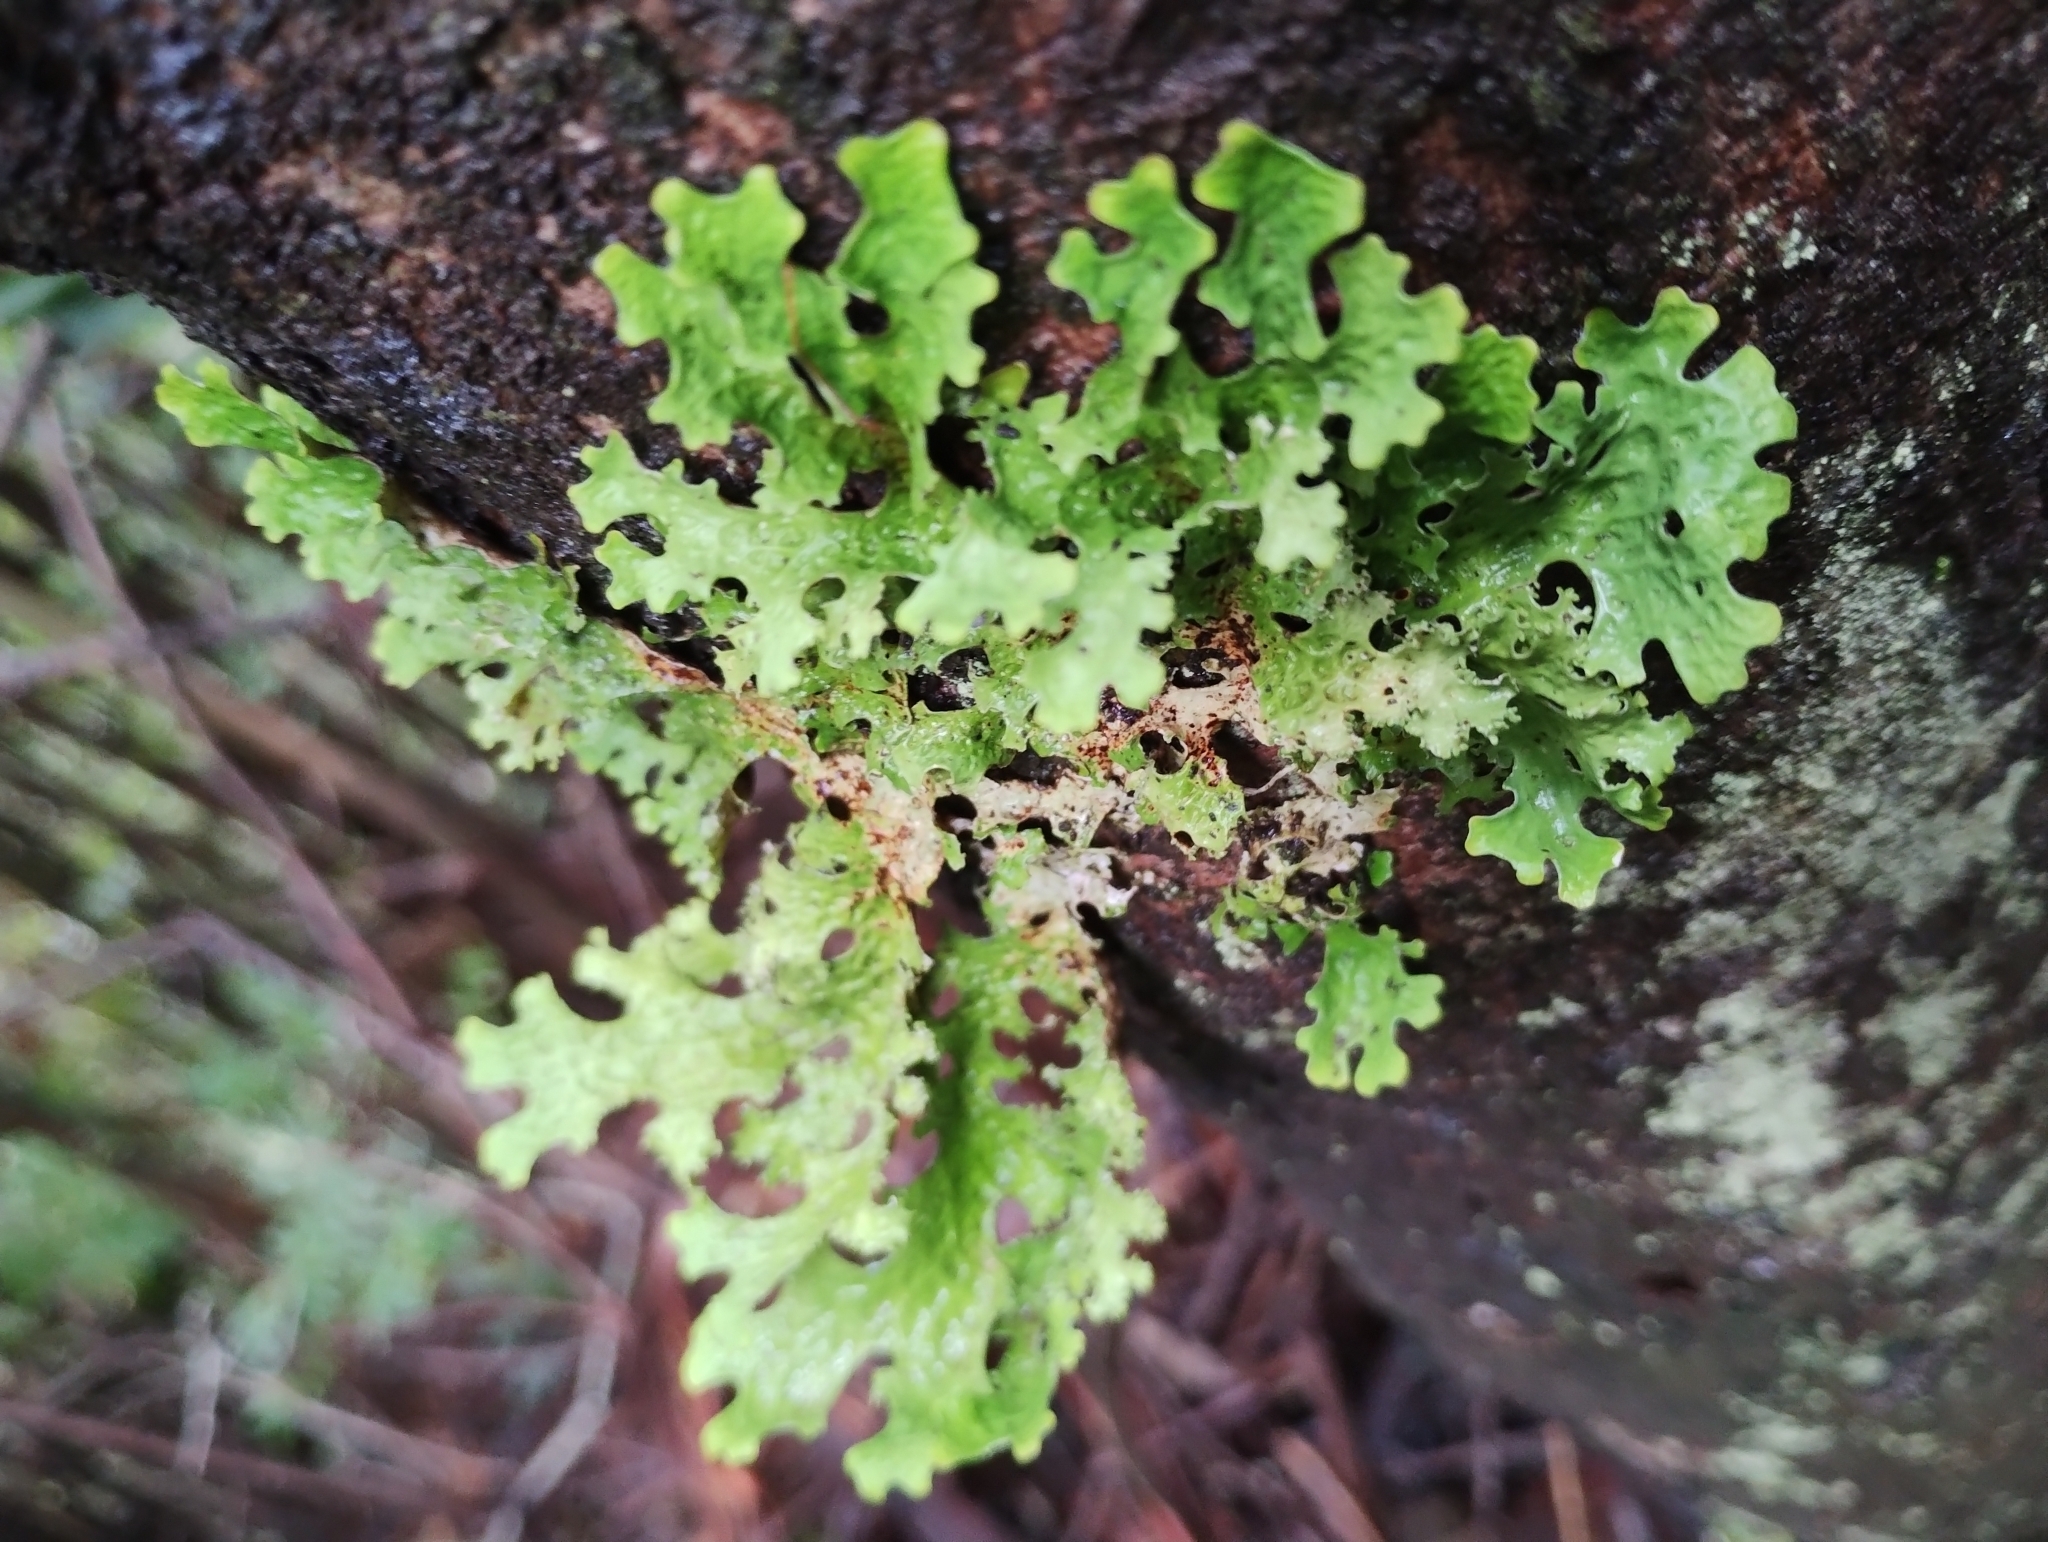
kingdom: Fungi
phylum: Ascomycota
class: Lecanoromycetes
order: Peltigerales
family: Lobariaceae
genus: Lobaria
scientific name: Lobaria pulmonaria
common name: Lungwort
